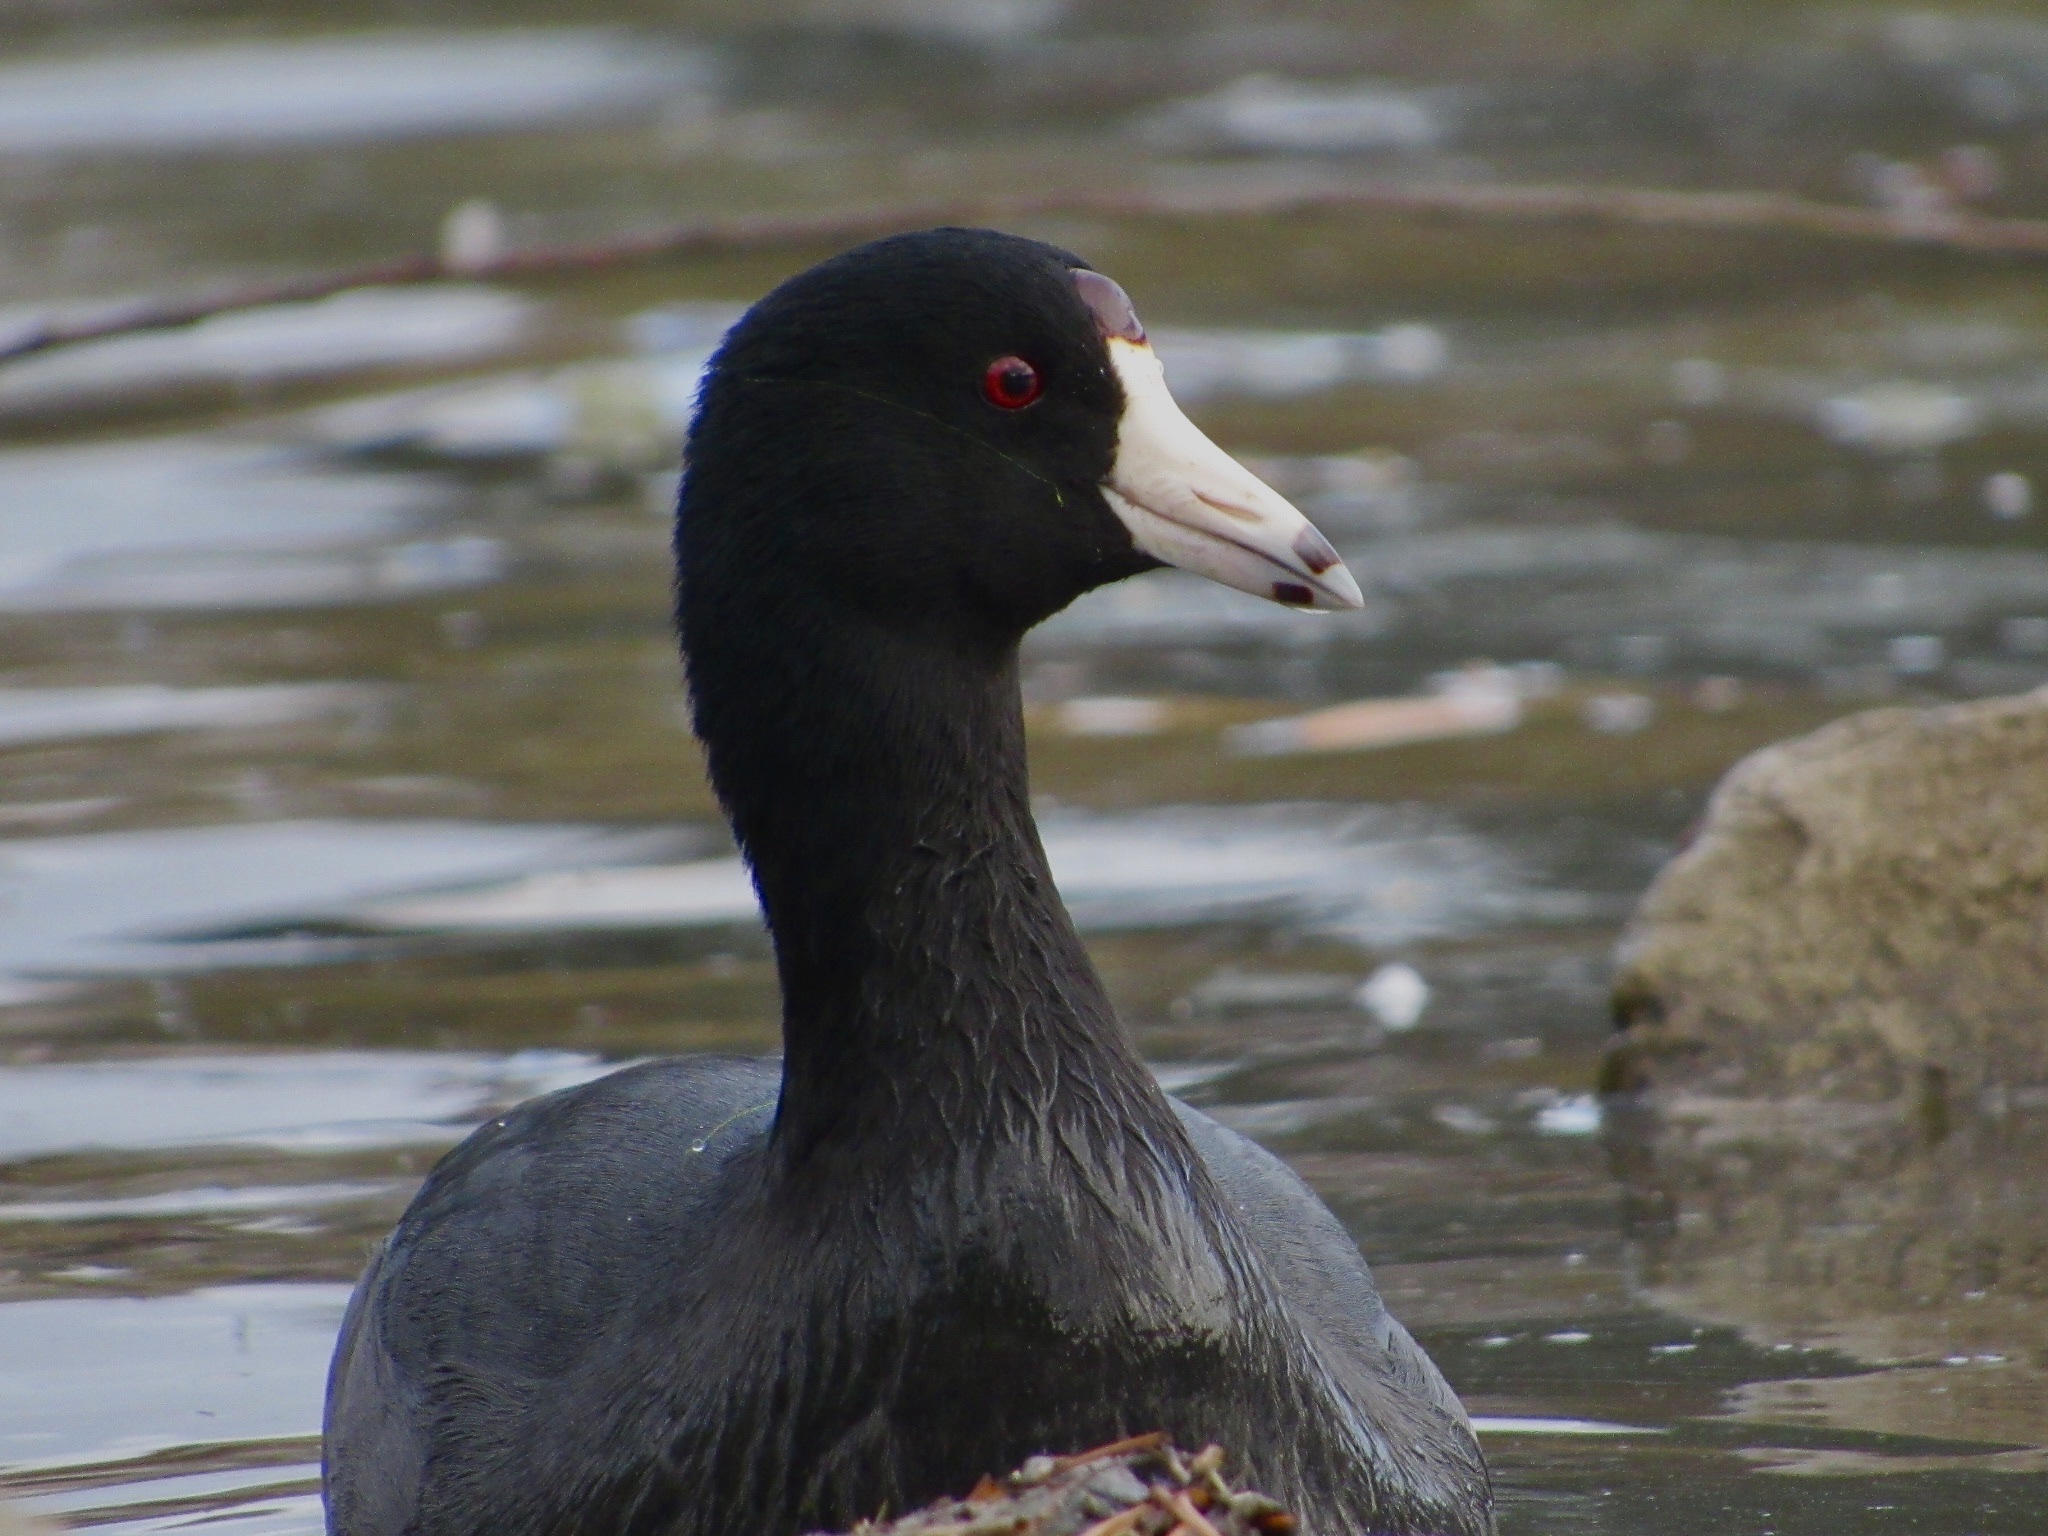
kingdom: Animalia
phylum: Chordata
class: Aves
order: Gruiformes
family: Rallidae
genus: Fulica
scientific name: Fulica americana
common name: American coot
